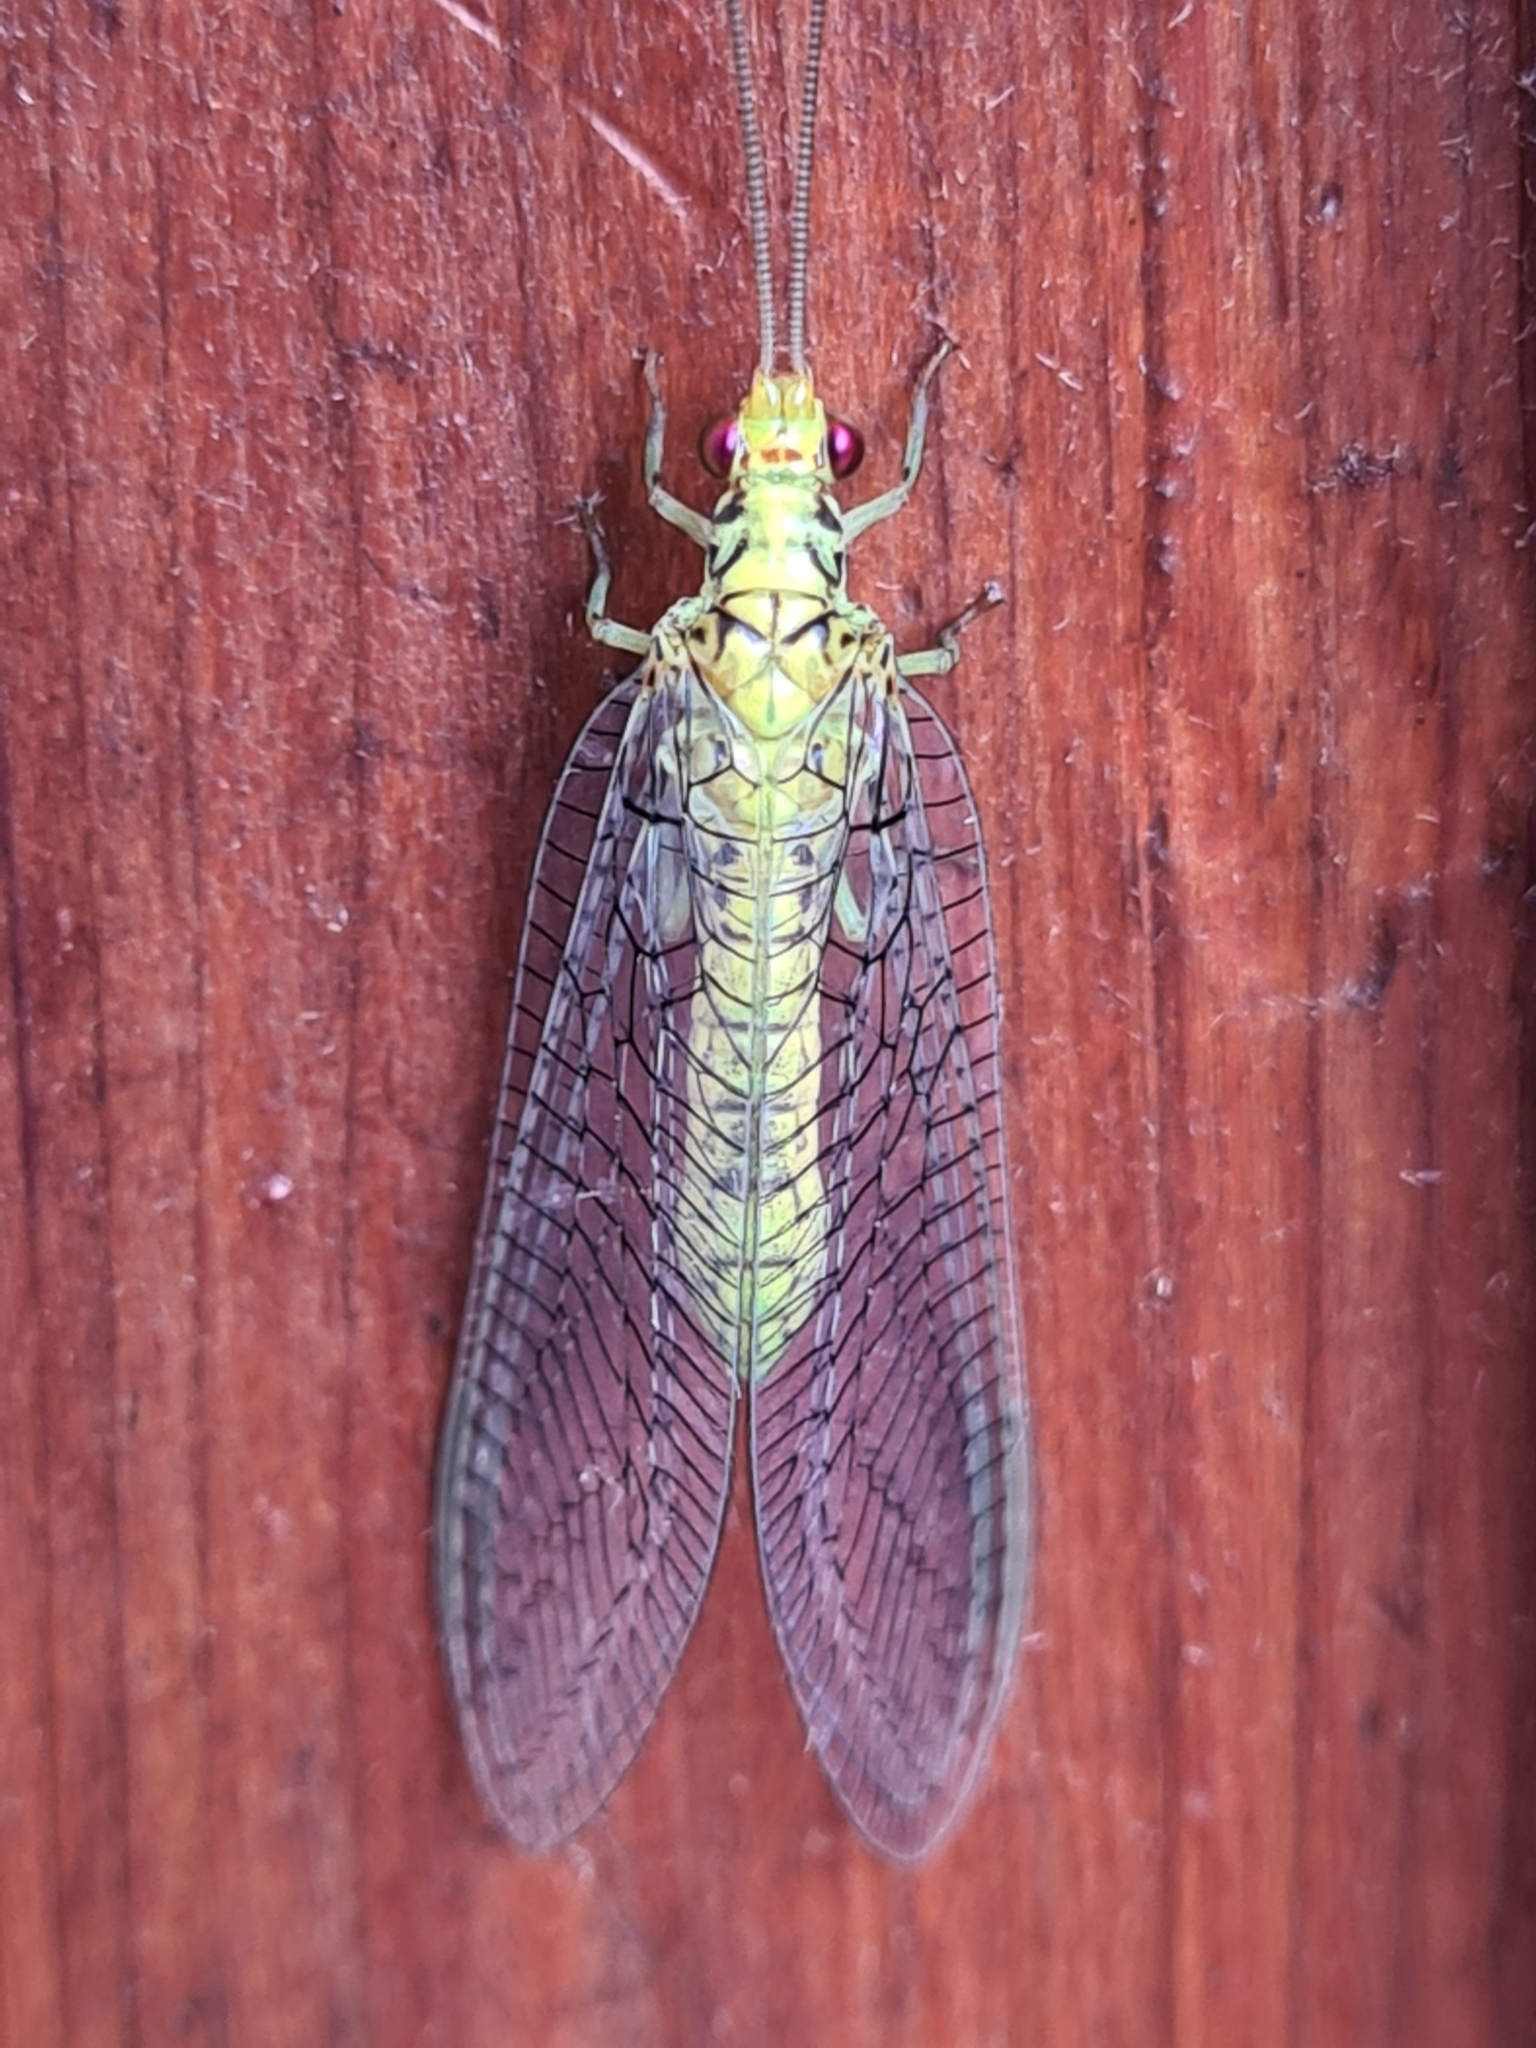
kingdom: Animalia
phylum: Arthropoda
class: Insecta
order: Neuroptera
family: Chrysopidae
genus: Italochrysa
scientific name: Italochrysa insignis
